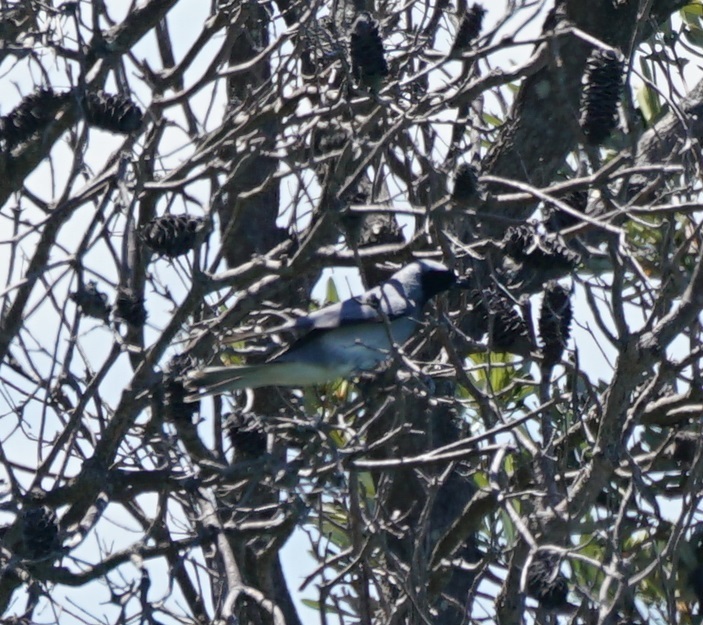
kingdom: Animalia
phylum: Chordata
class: Aves
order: Passeriformes
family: Campephagidae
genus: Coracina
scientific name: Coracina novaehollandiae
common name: Black-faced cuckooshrike
